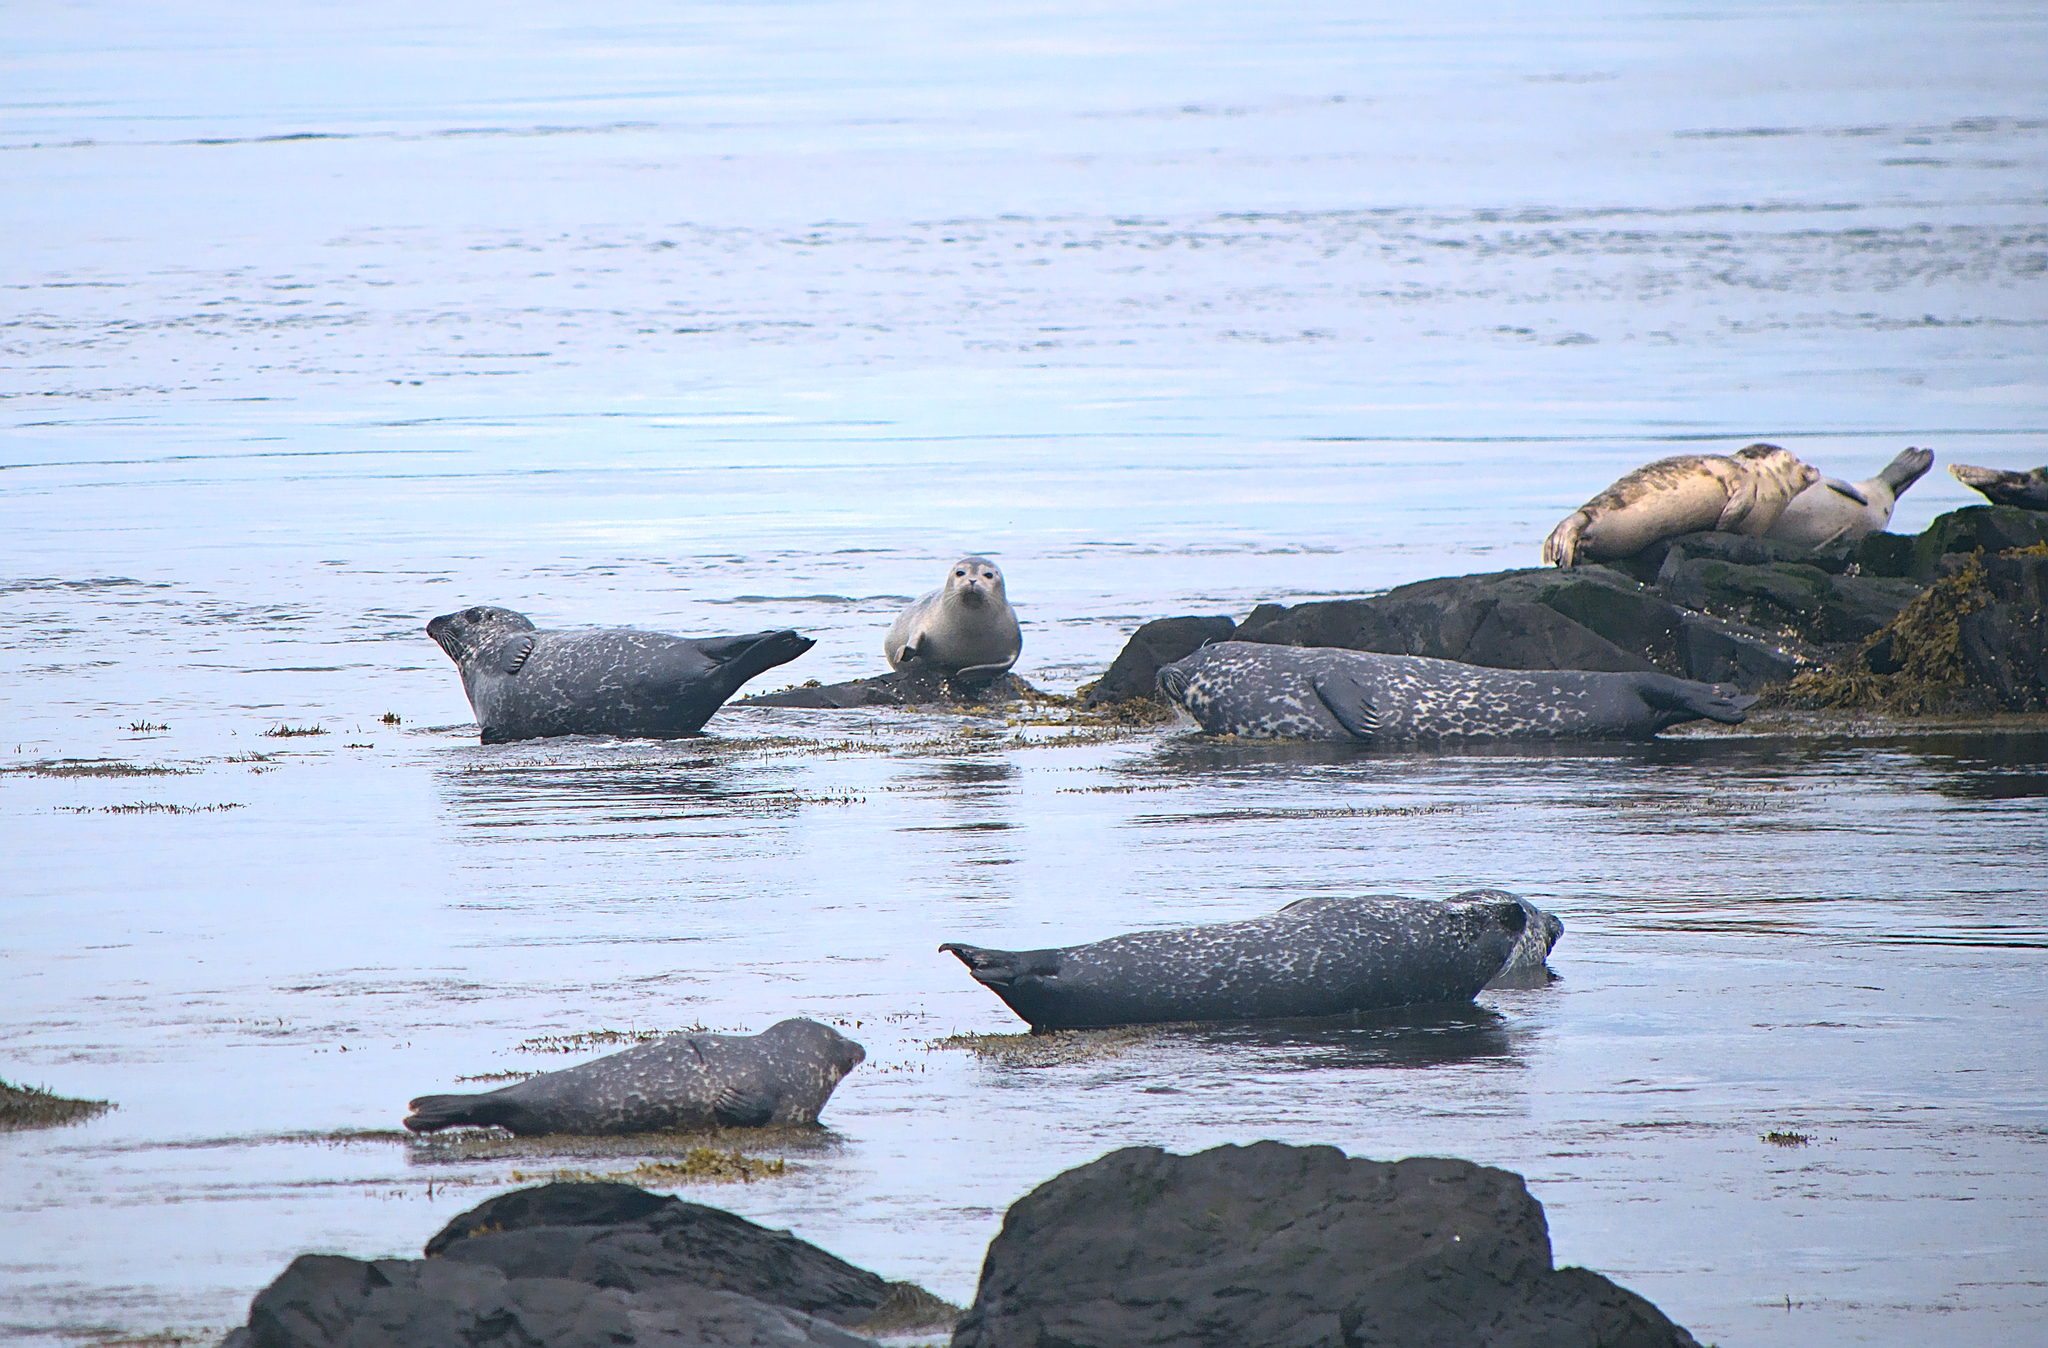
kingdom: Animalia
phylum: Chordata
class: Mammalia
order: Carnivora
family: Phocidae
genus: Phoca
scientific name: Phoca vitulina
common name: Harbor seal
